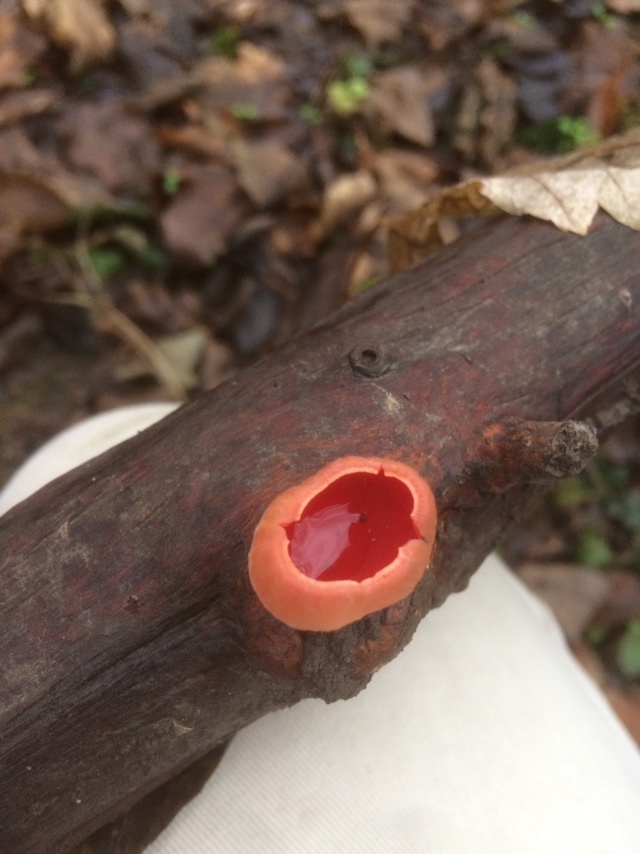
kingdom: Fungi
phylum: Ascomycota
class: Pezizomycetes
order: Pezizales
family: Sarcoscyphaceae
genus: Sarcoscypha
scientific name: Sarcoscypha
